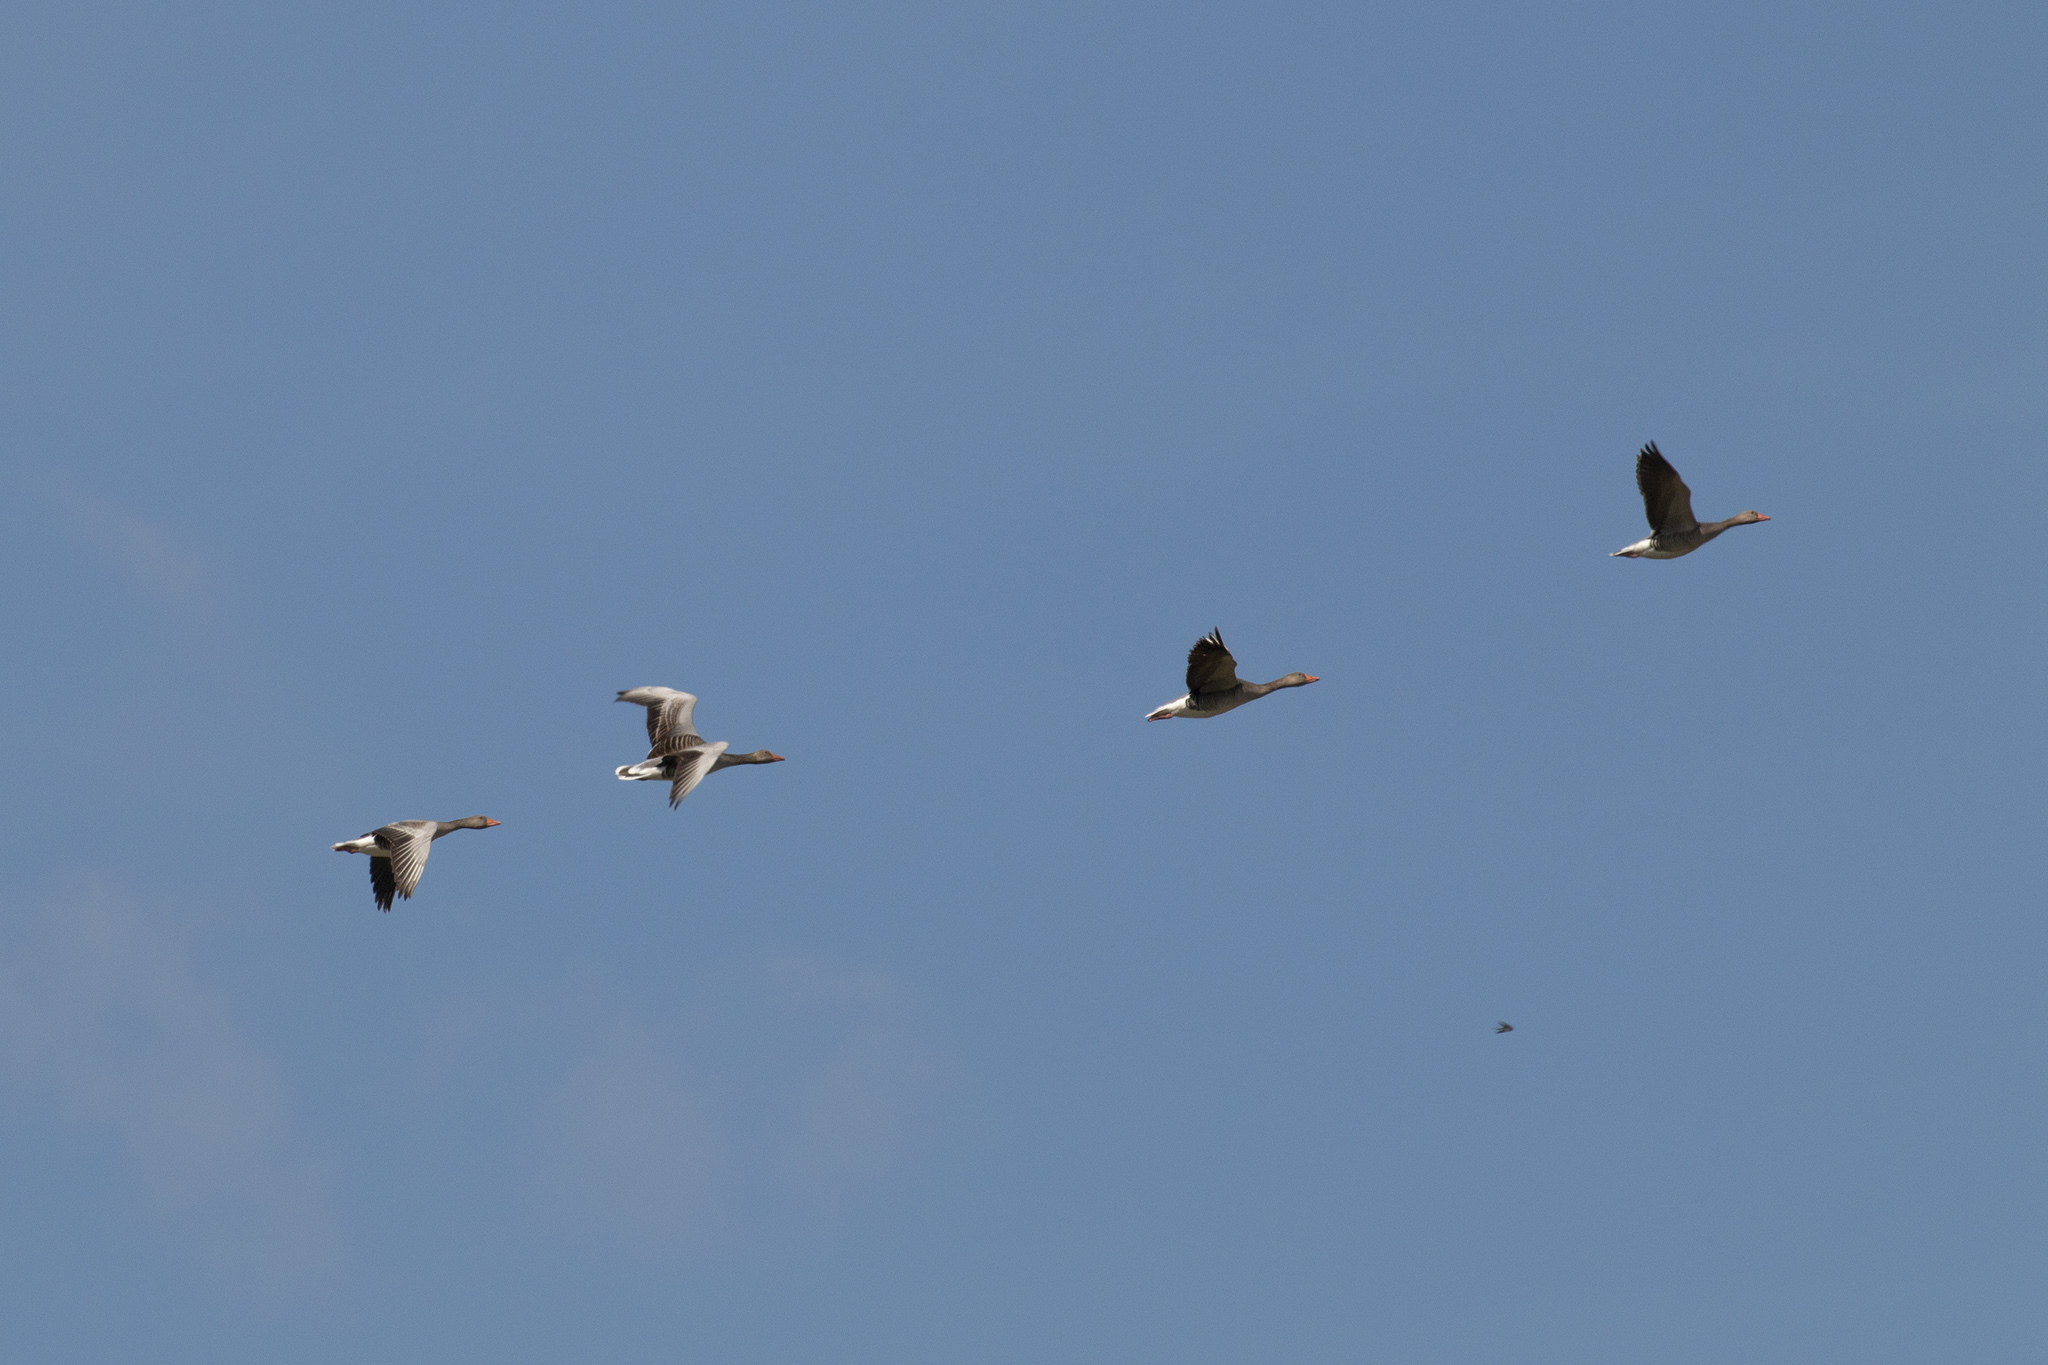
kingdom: Animalia
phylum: Chordata
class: Aves
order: Anseriformes
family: Anatidae
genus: Anser
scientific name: Anser anser
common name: Greylag goose
